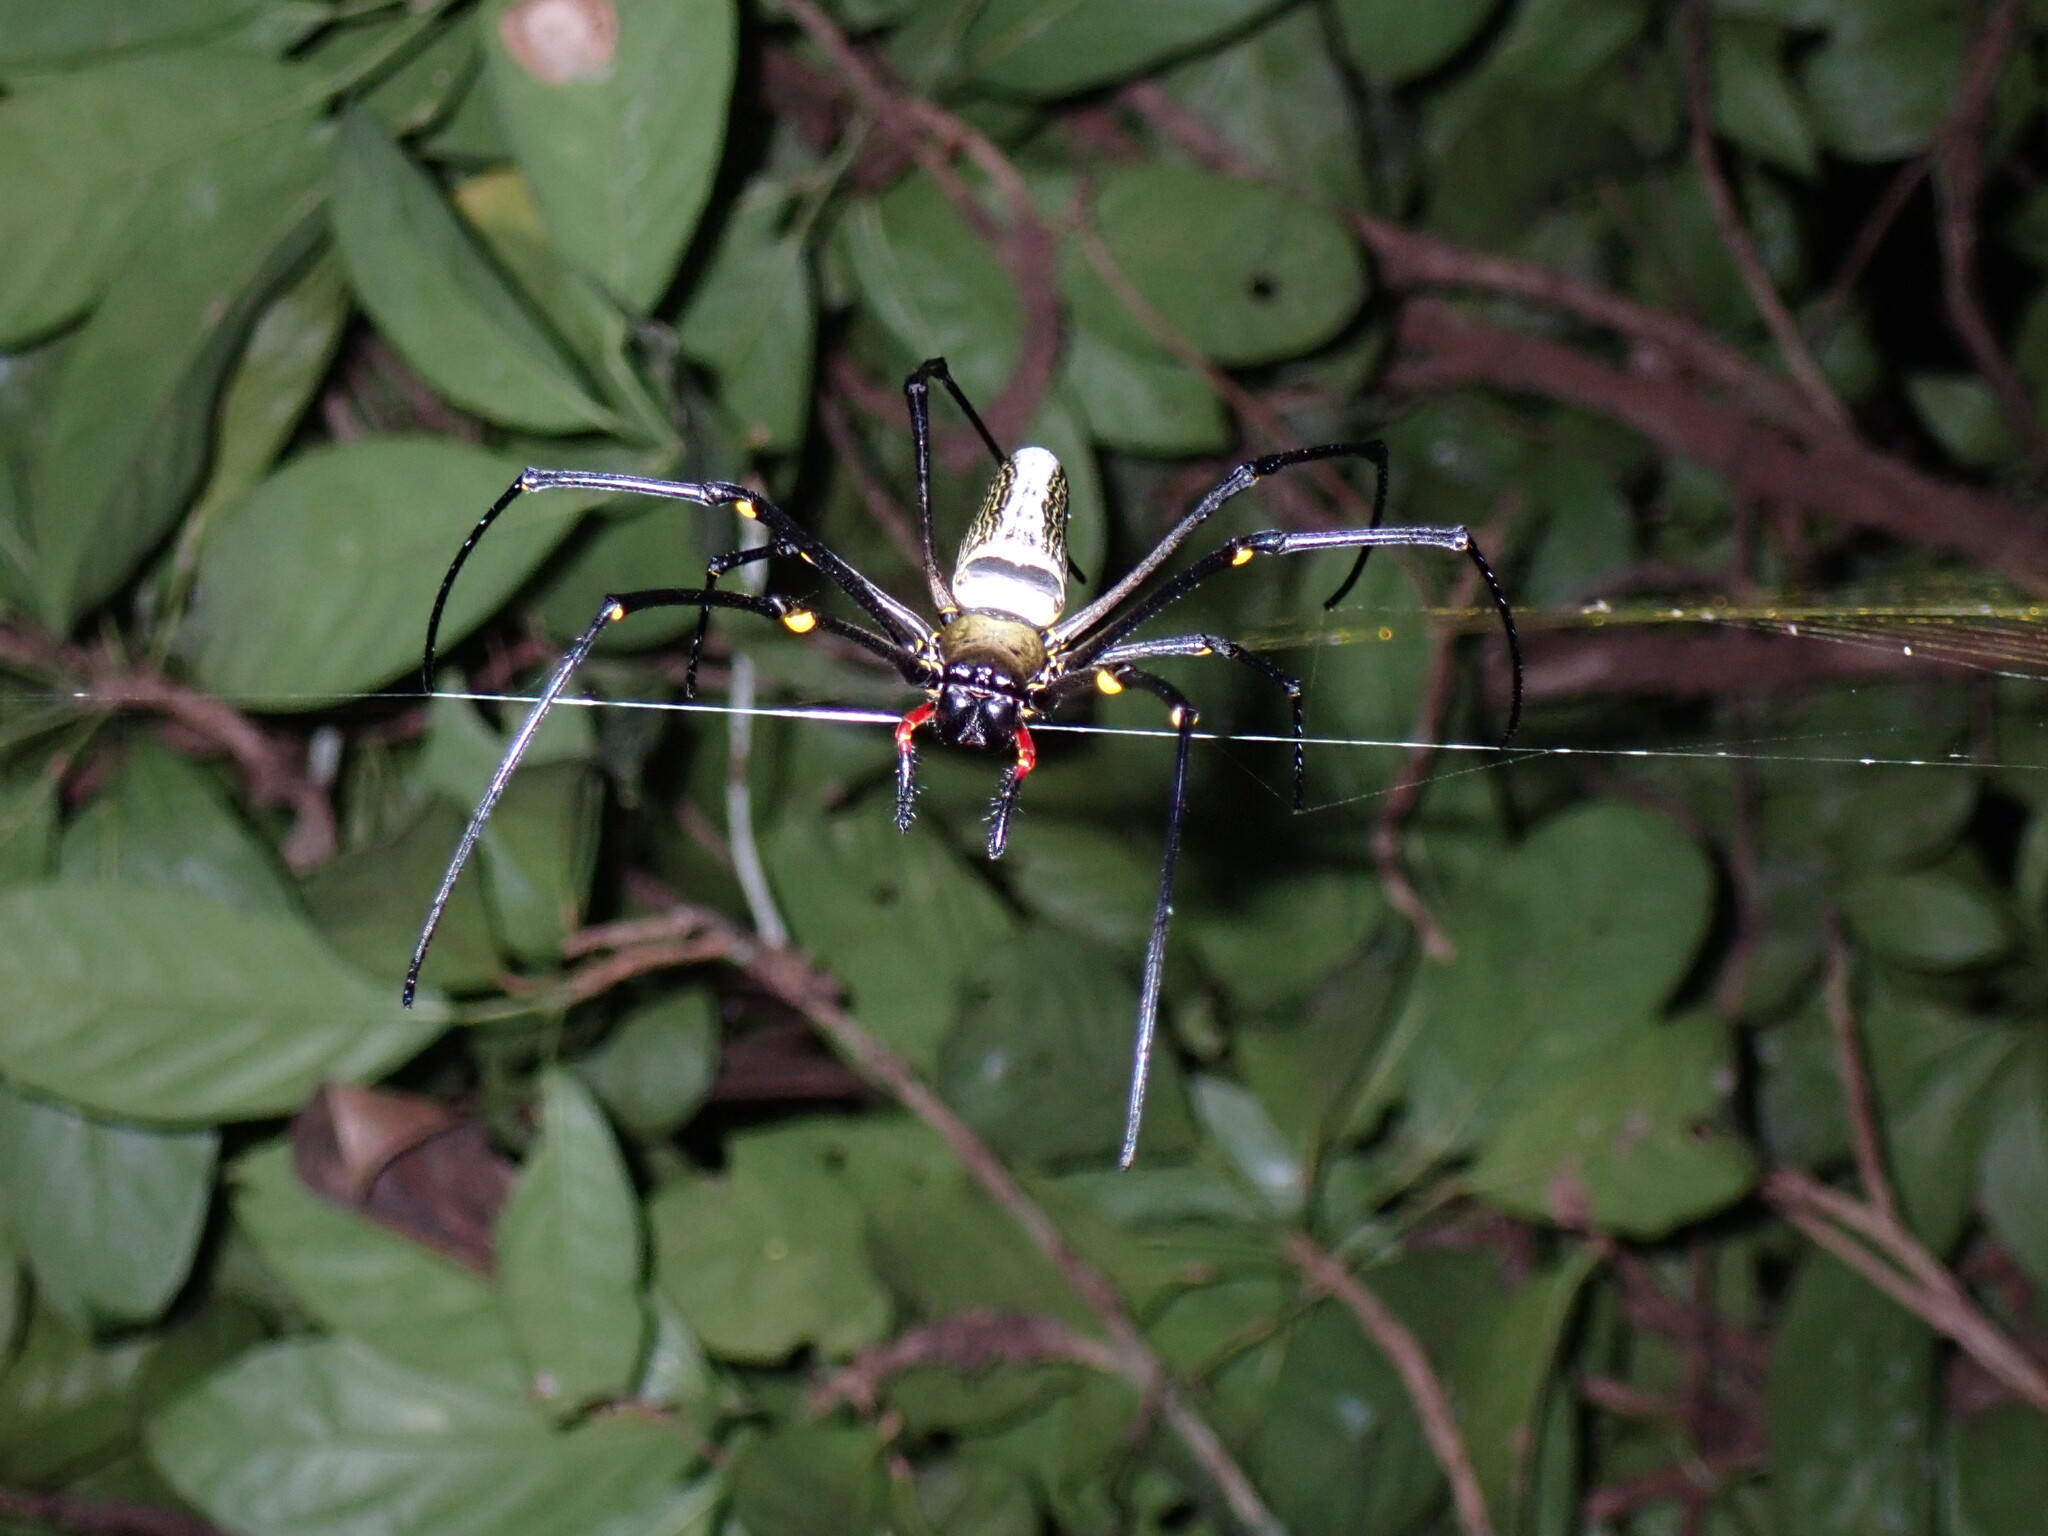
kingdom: Animalia
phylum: Arthropoda
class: Arachnida
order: Araneae
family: Araneidae
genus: Nephila
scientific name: Nephila pilipes
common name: Giant golden orb weaver
